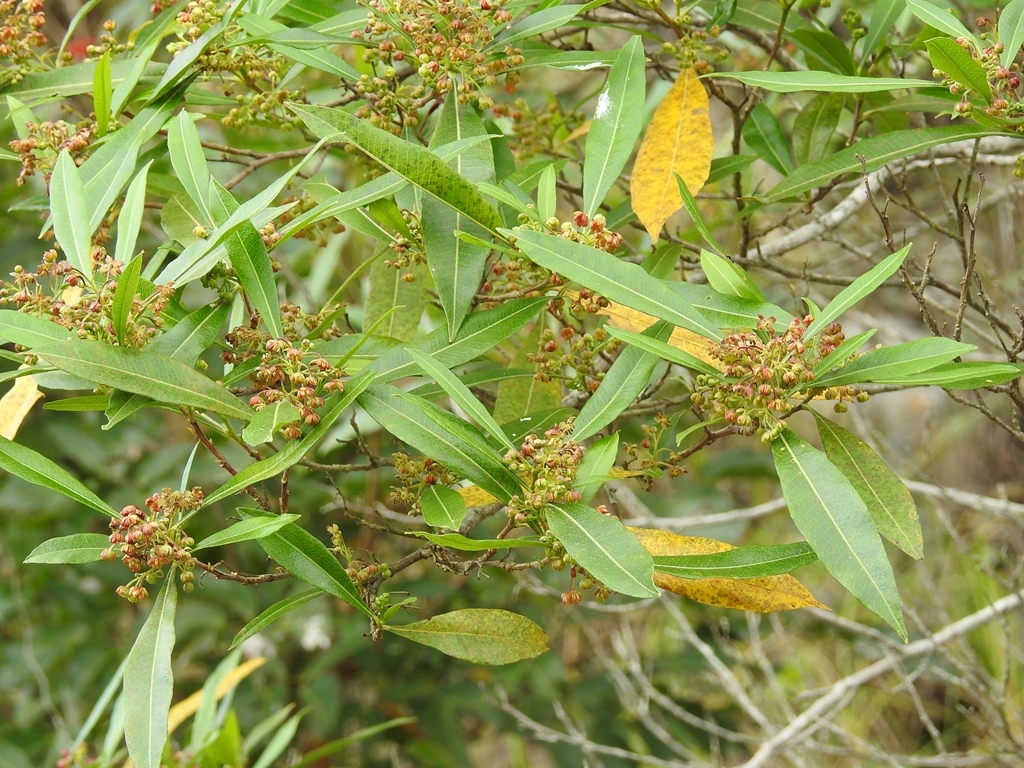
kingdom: Plantae
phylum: Tracheophyta
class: Magnoliopsida
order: Sapindales
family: Sapindaceae
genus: Dodonaea
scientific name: Dodonaea viscosa
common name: Hopbush
